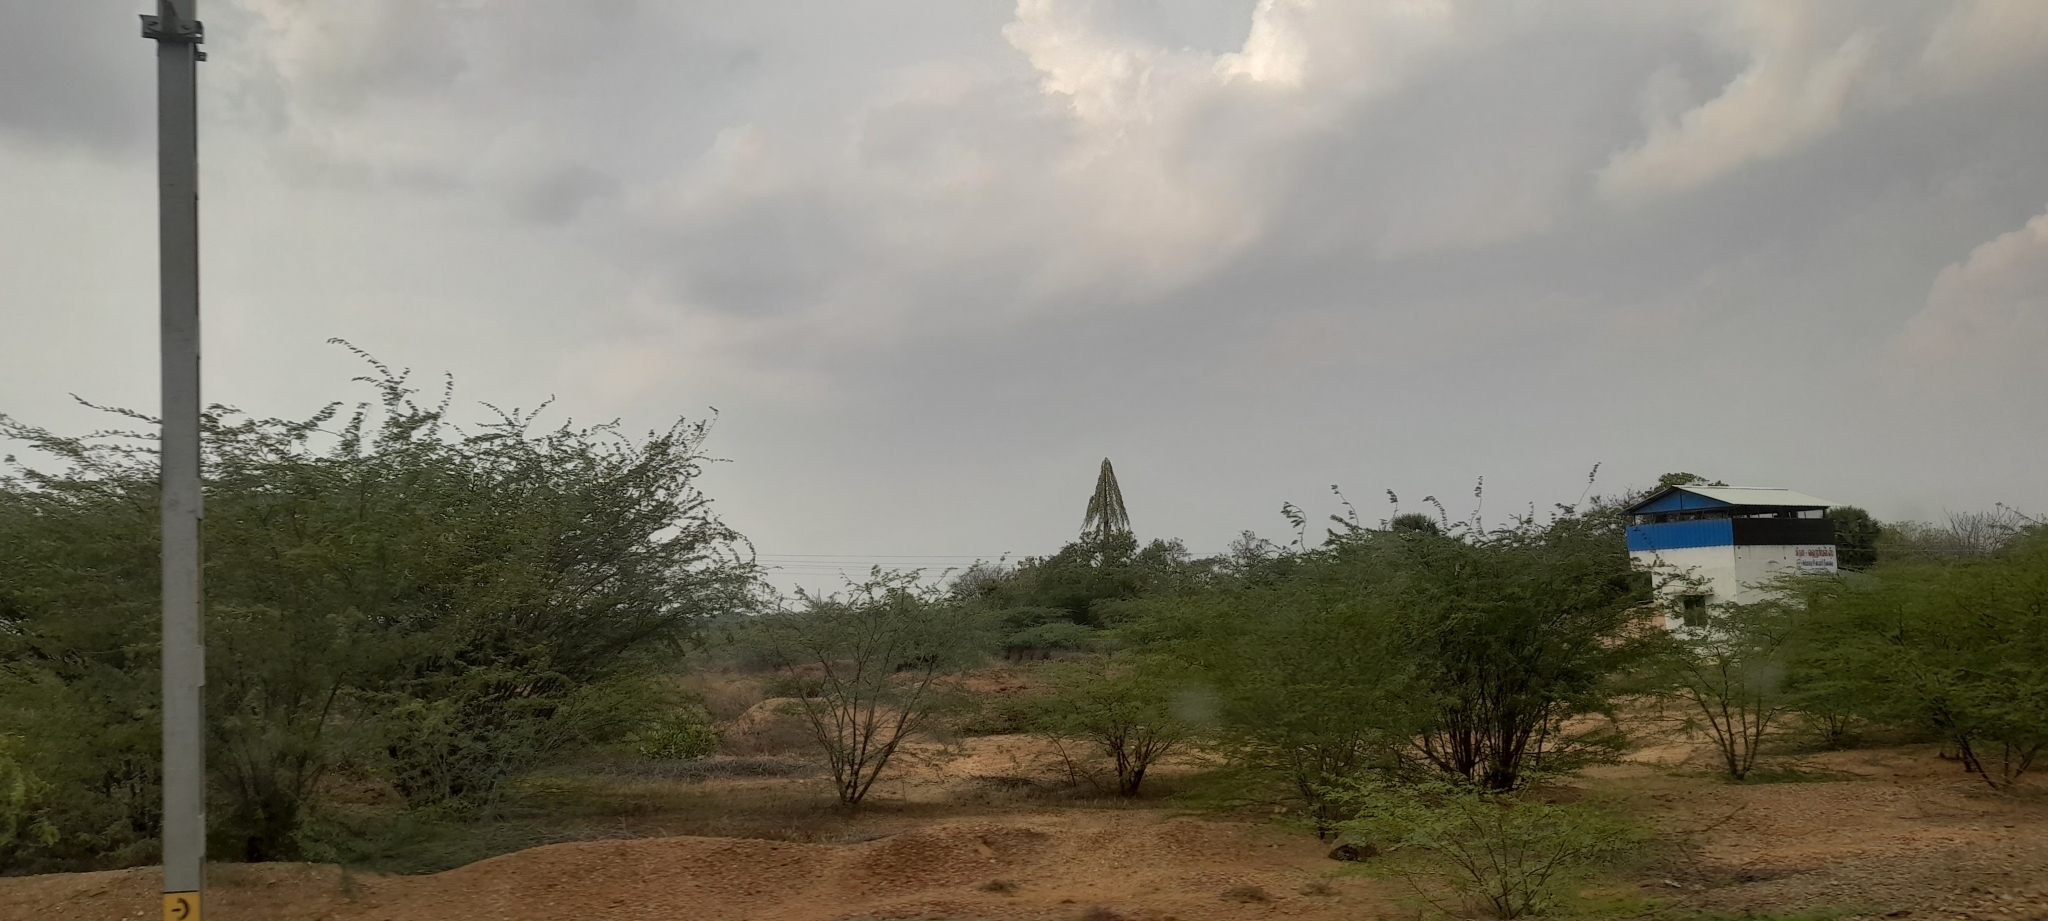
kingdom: Plantae
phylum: Tracheophyta
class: Liliopsida
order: Arecales
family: Arecaceae
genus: Corypha
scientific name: Corypha umbraculifera
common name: Talipot palm
